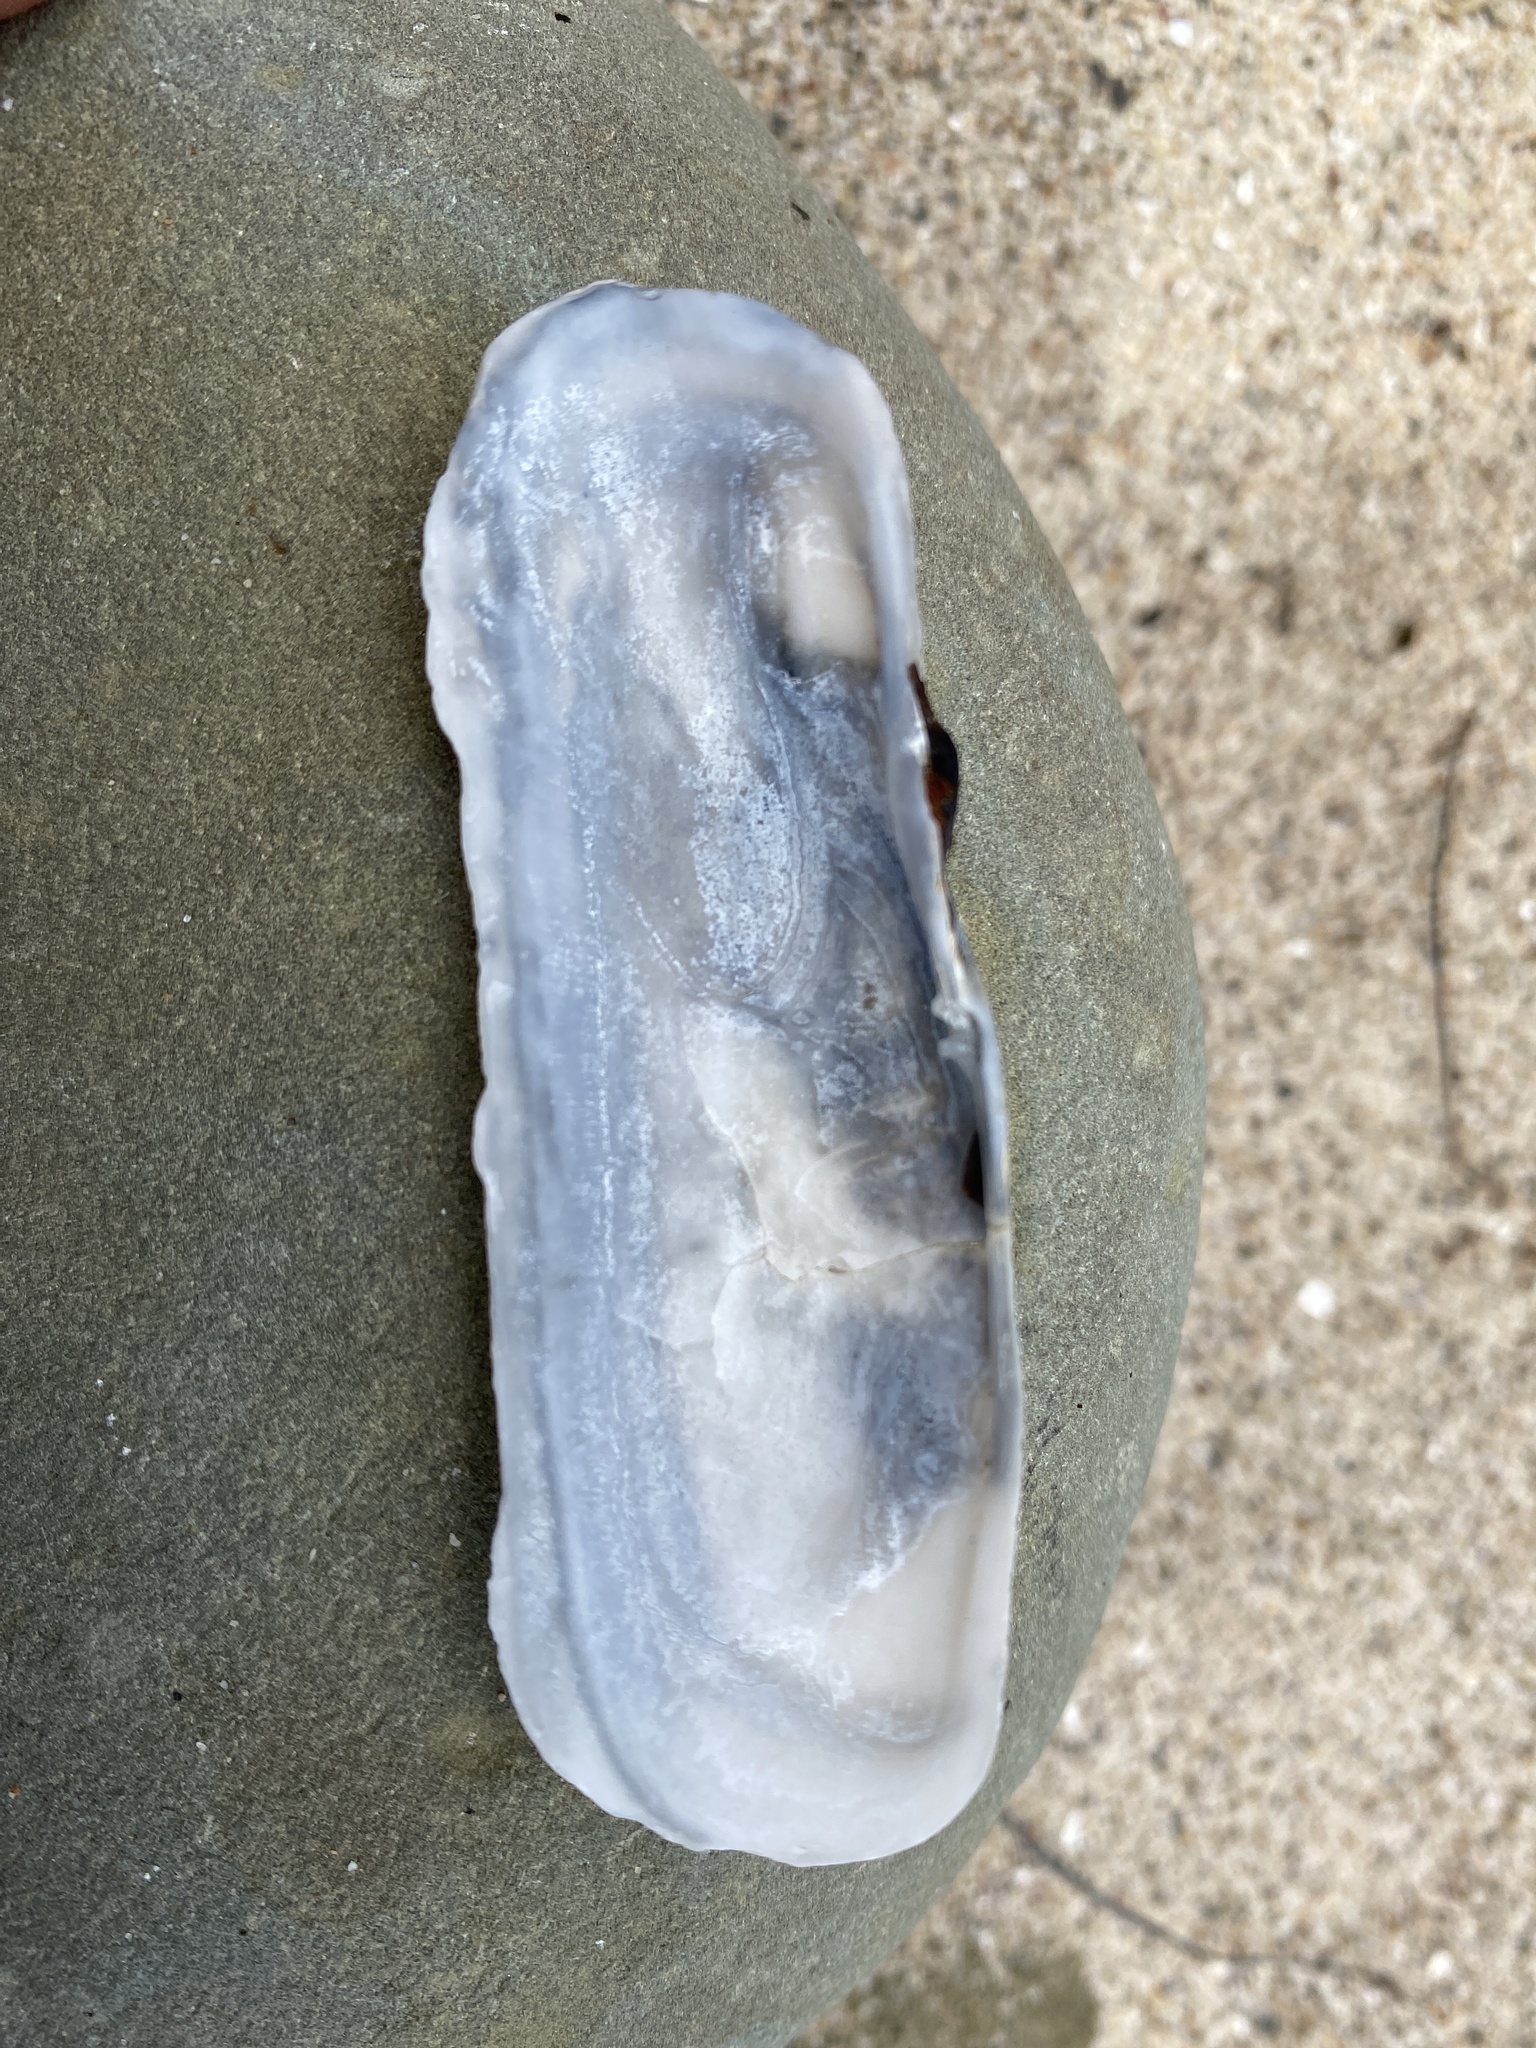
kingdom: Animalia
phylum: Mollusca
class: Bivalvia
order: Cardiida
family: Solecurtidae
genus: Tagelus
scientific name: Tagelus californianus
